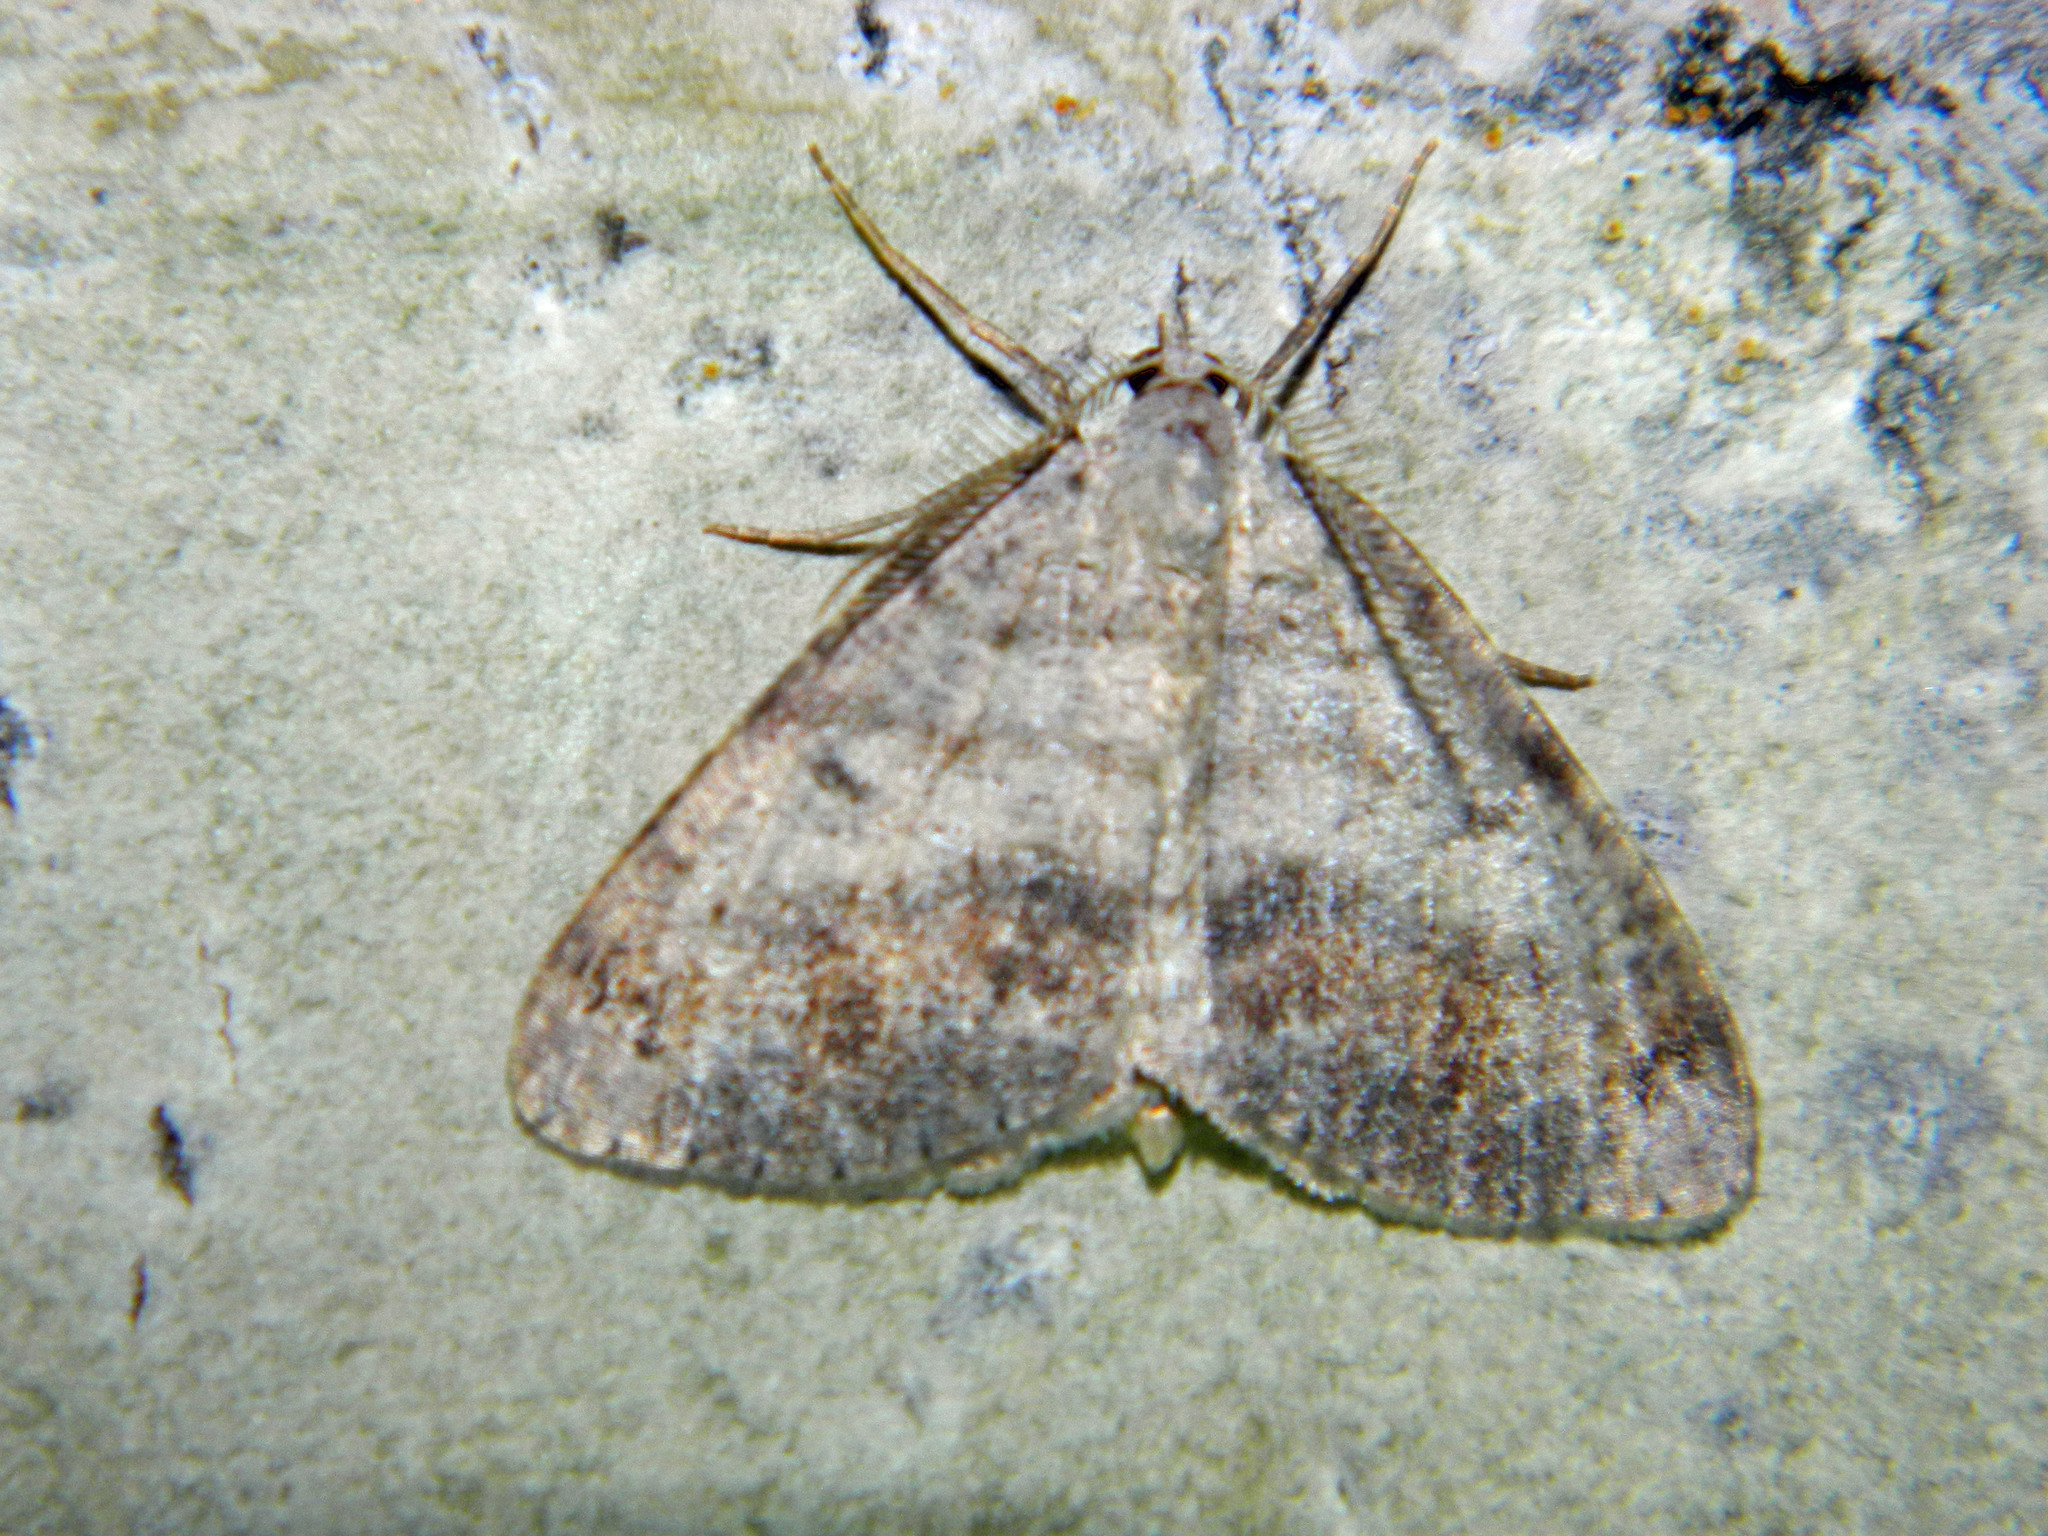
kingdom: Animalia
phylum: Arthropoda
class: Insecta
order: Lepidoptera
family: Geometridae
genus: Macaria
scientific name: Macaria loricaria
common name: False bruce spanworm
